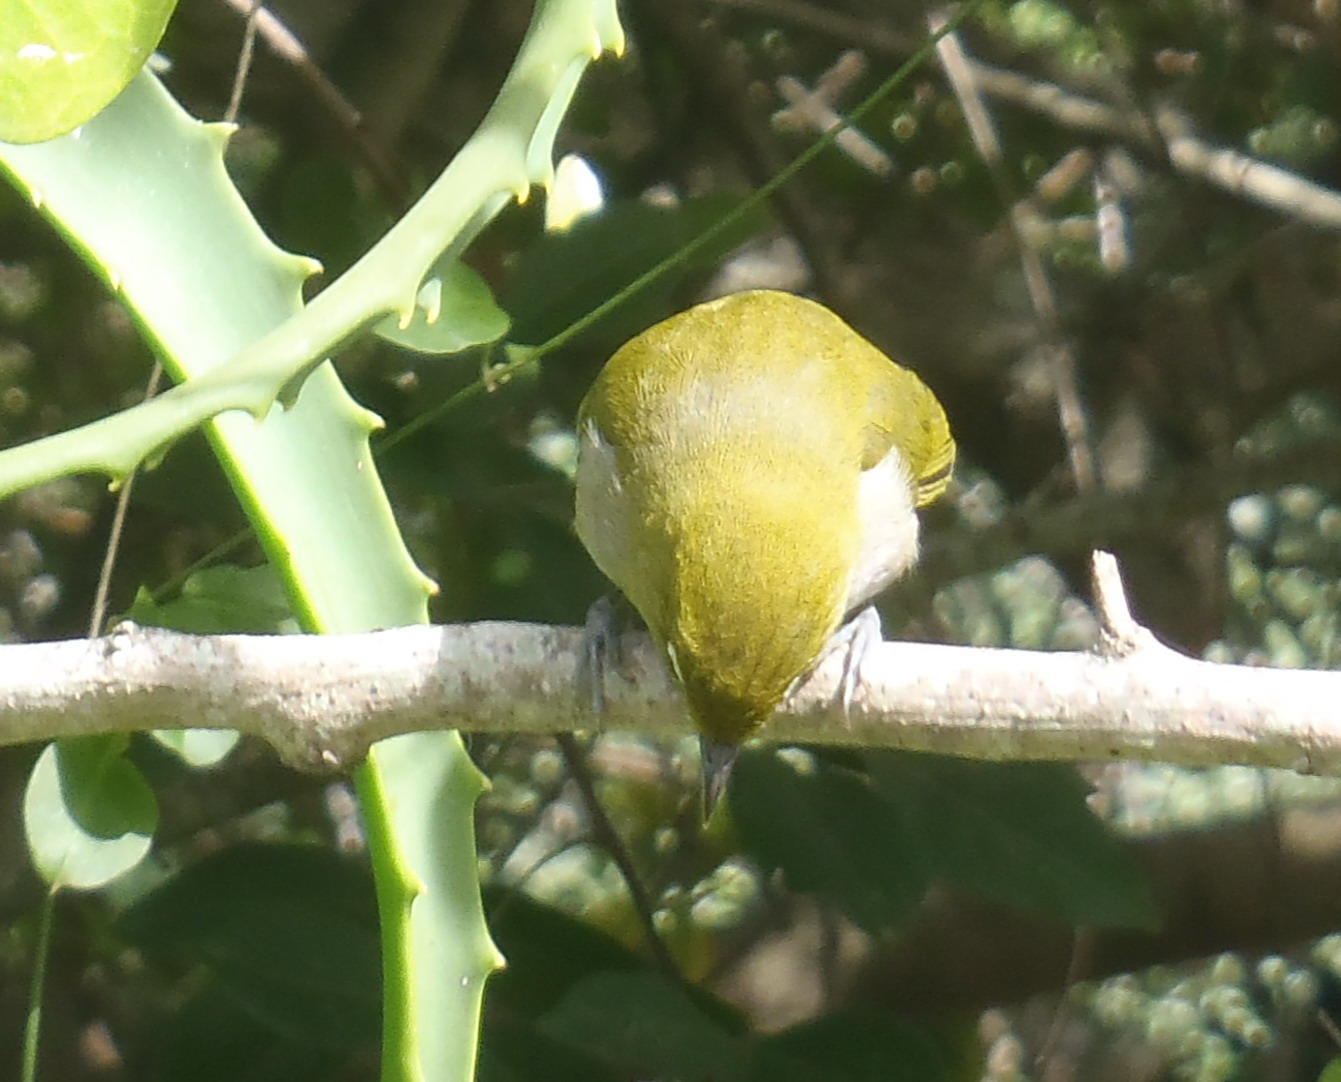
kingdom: Animalia
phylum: Chordata
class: Aves
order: Passeriformes
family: Zosteropidae
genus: Zosterops
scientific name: Zosterops virens
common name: Cape white-eye
